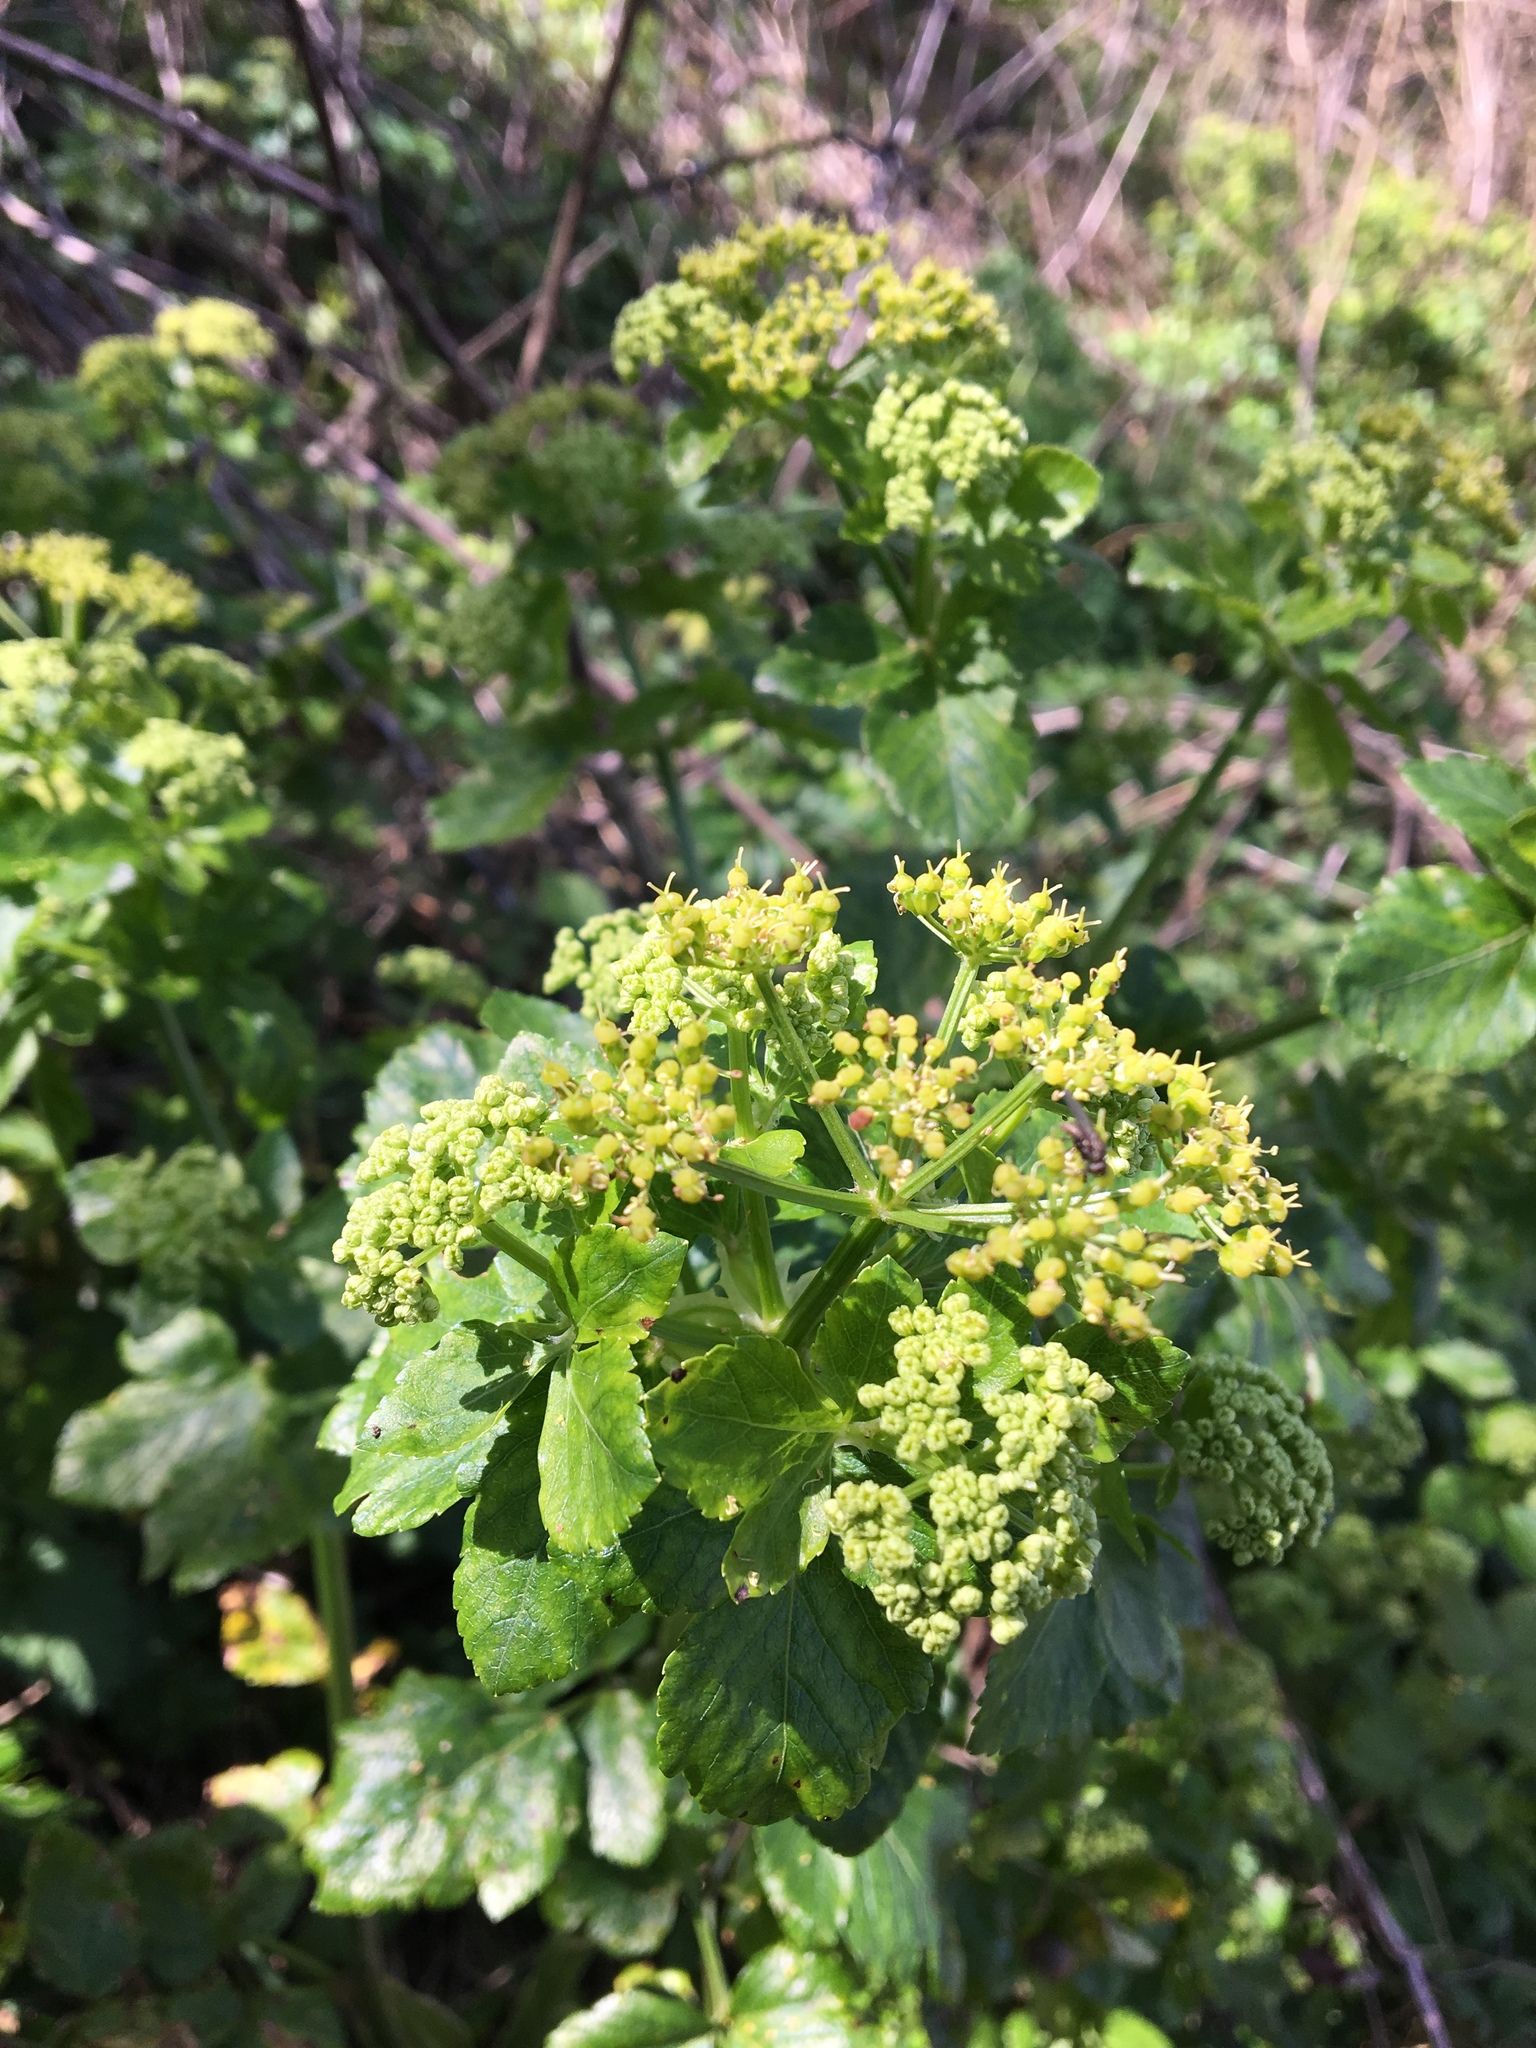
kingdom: Plantae
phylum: Tracheophyta
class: Magnoliopsida
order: Apiales
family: Apiaceae
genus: Smyrnium
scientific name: Smyrnium olusatrum
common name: Alexanders
